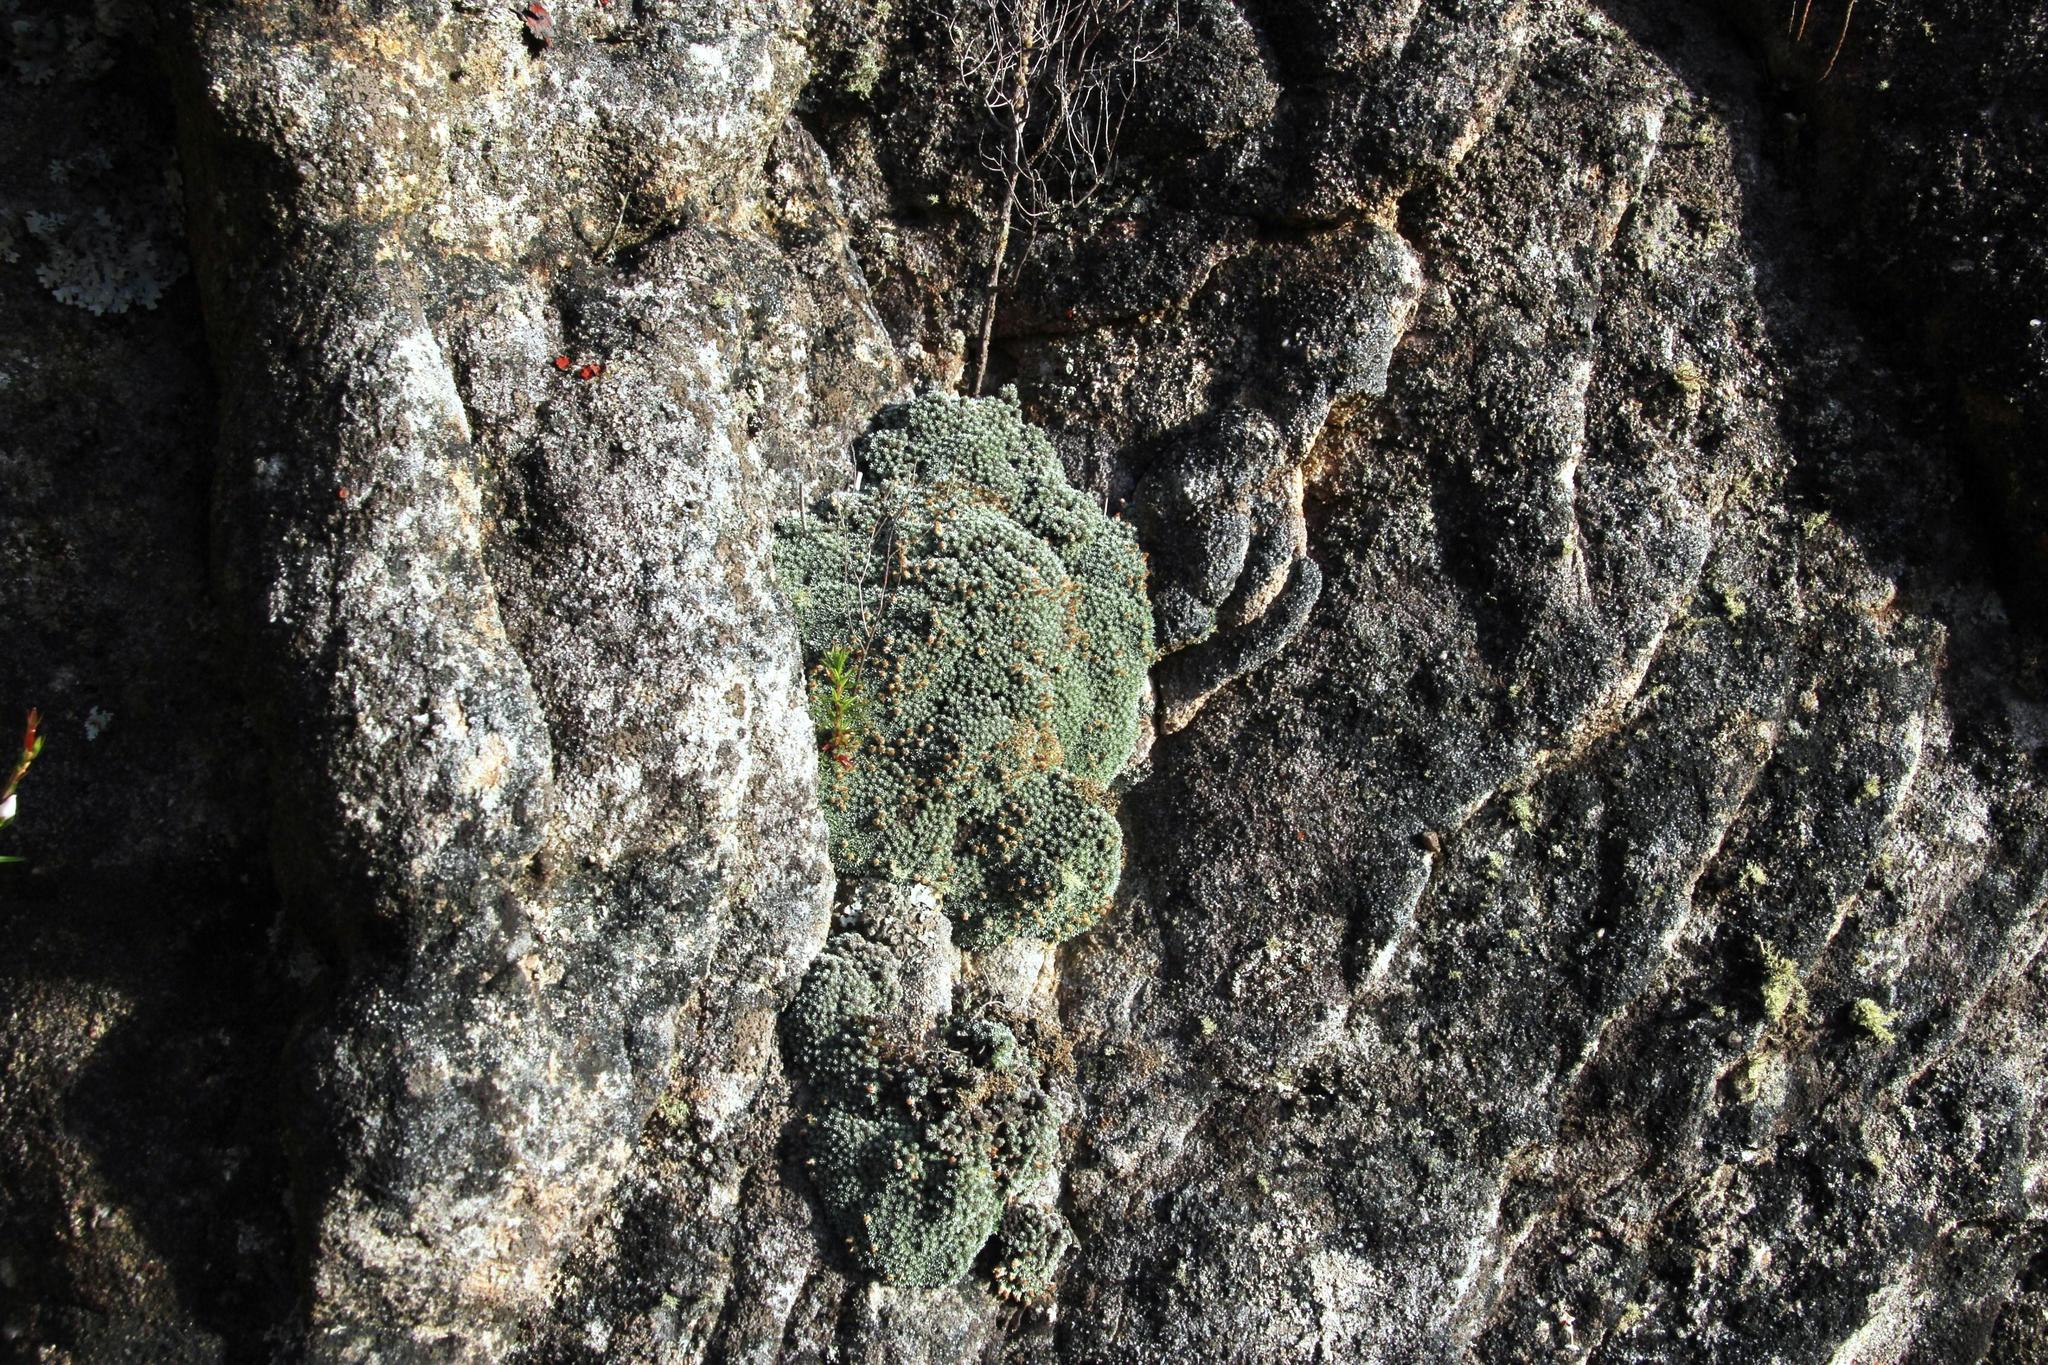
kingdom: Plantae
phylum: Tracheophyta
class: Magnoliopsida
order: Asterales
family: Asteraceae
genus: Muscosomorphe
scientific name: Muscosomorphe aretioides
